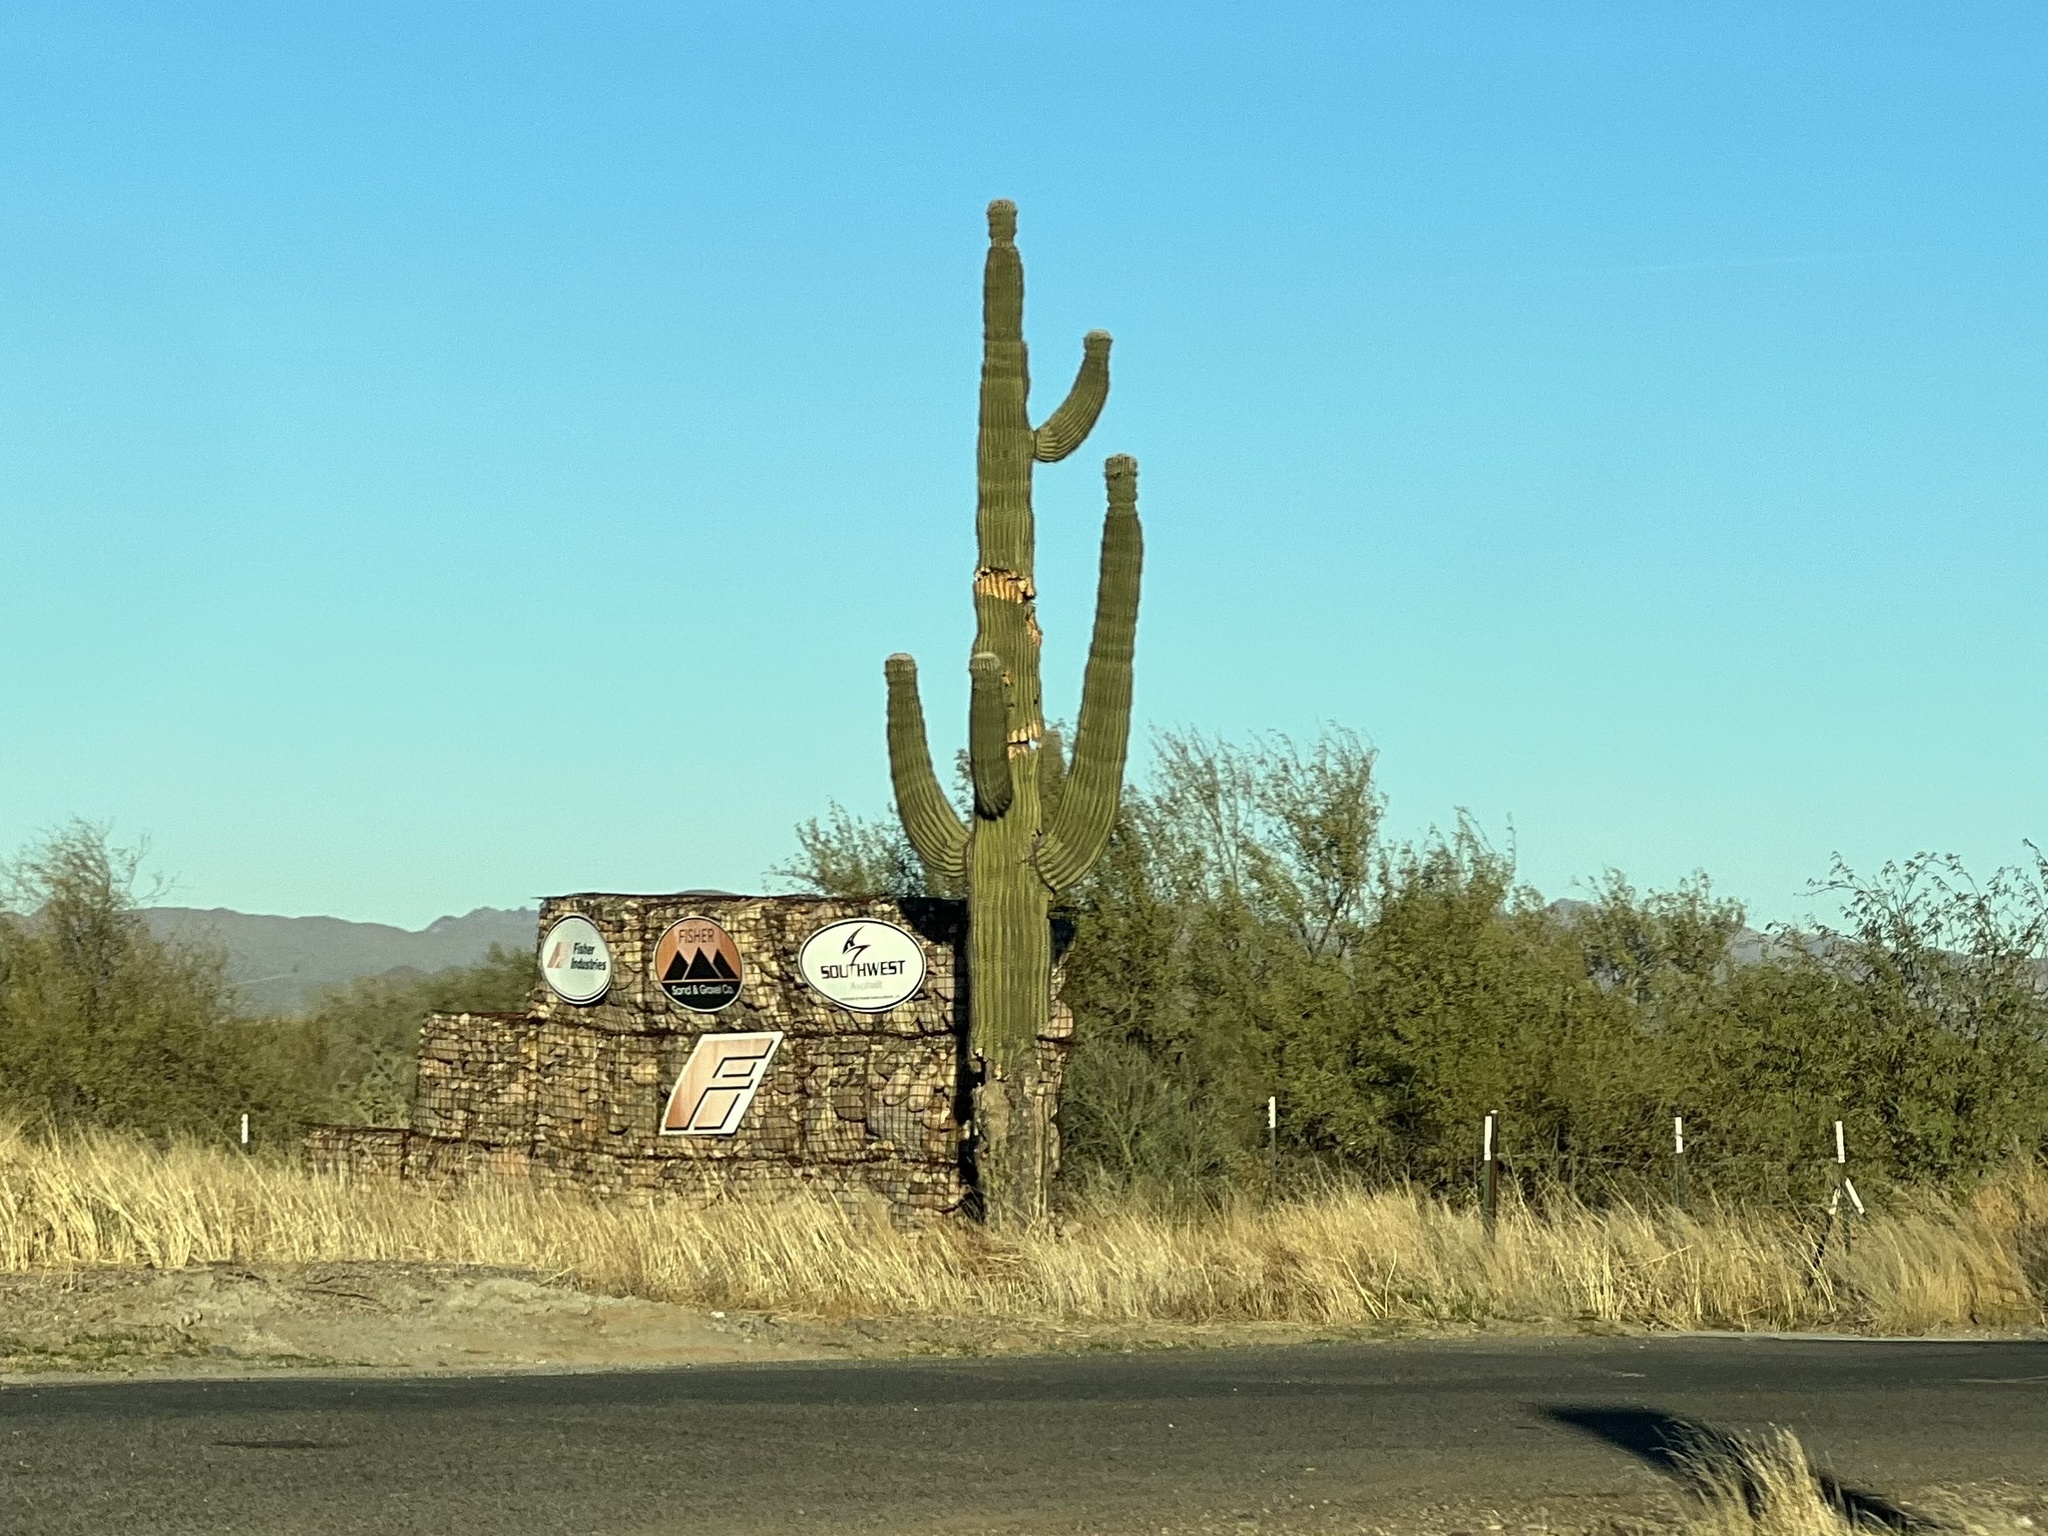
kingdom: Plantae
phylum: Tracheophyta
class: Magnoliopsida
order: Caryophyllales
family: Cactaceae
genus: Carnegiea
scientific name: Carnegiea gigantea
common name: Saguaro
